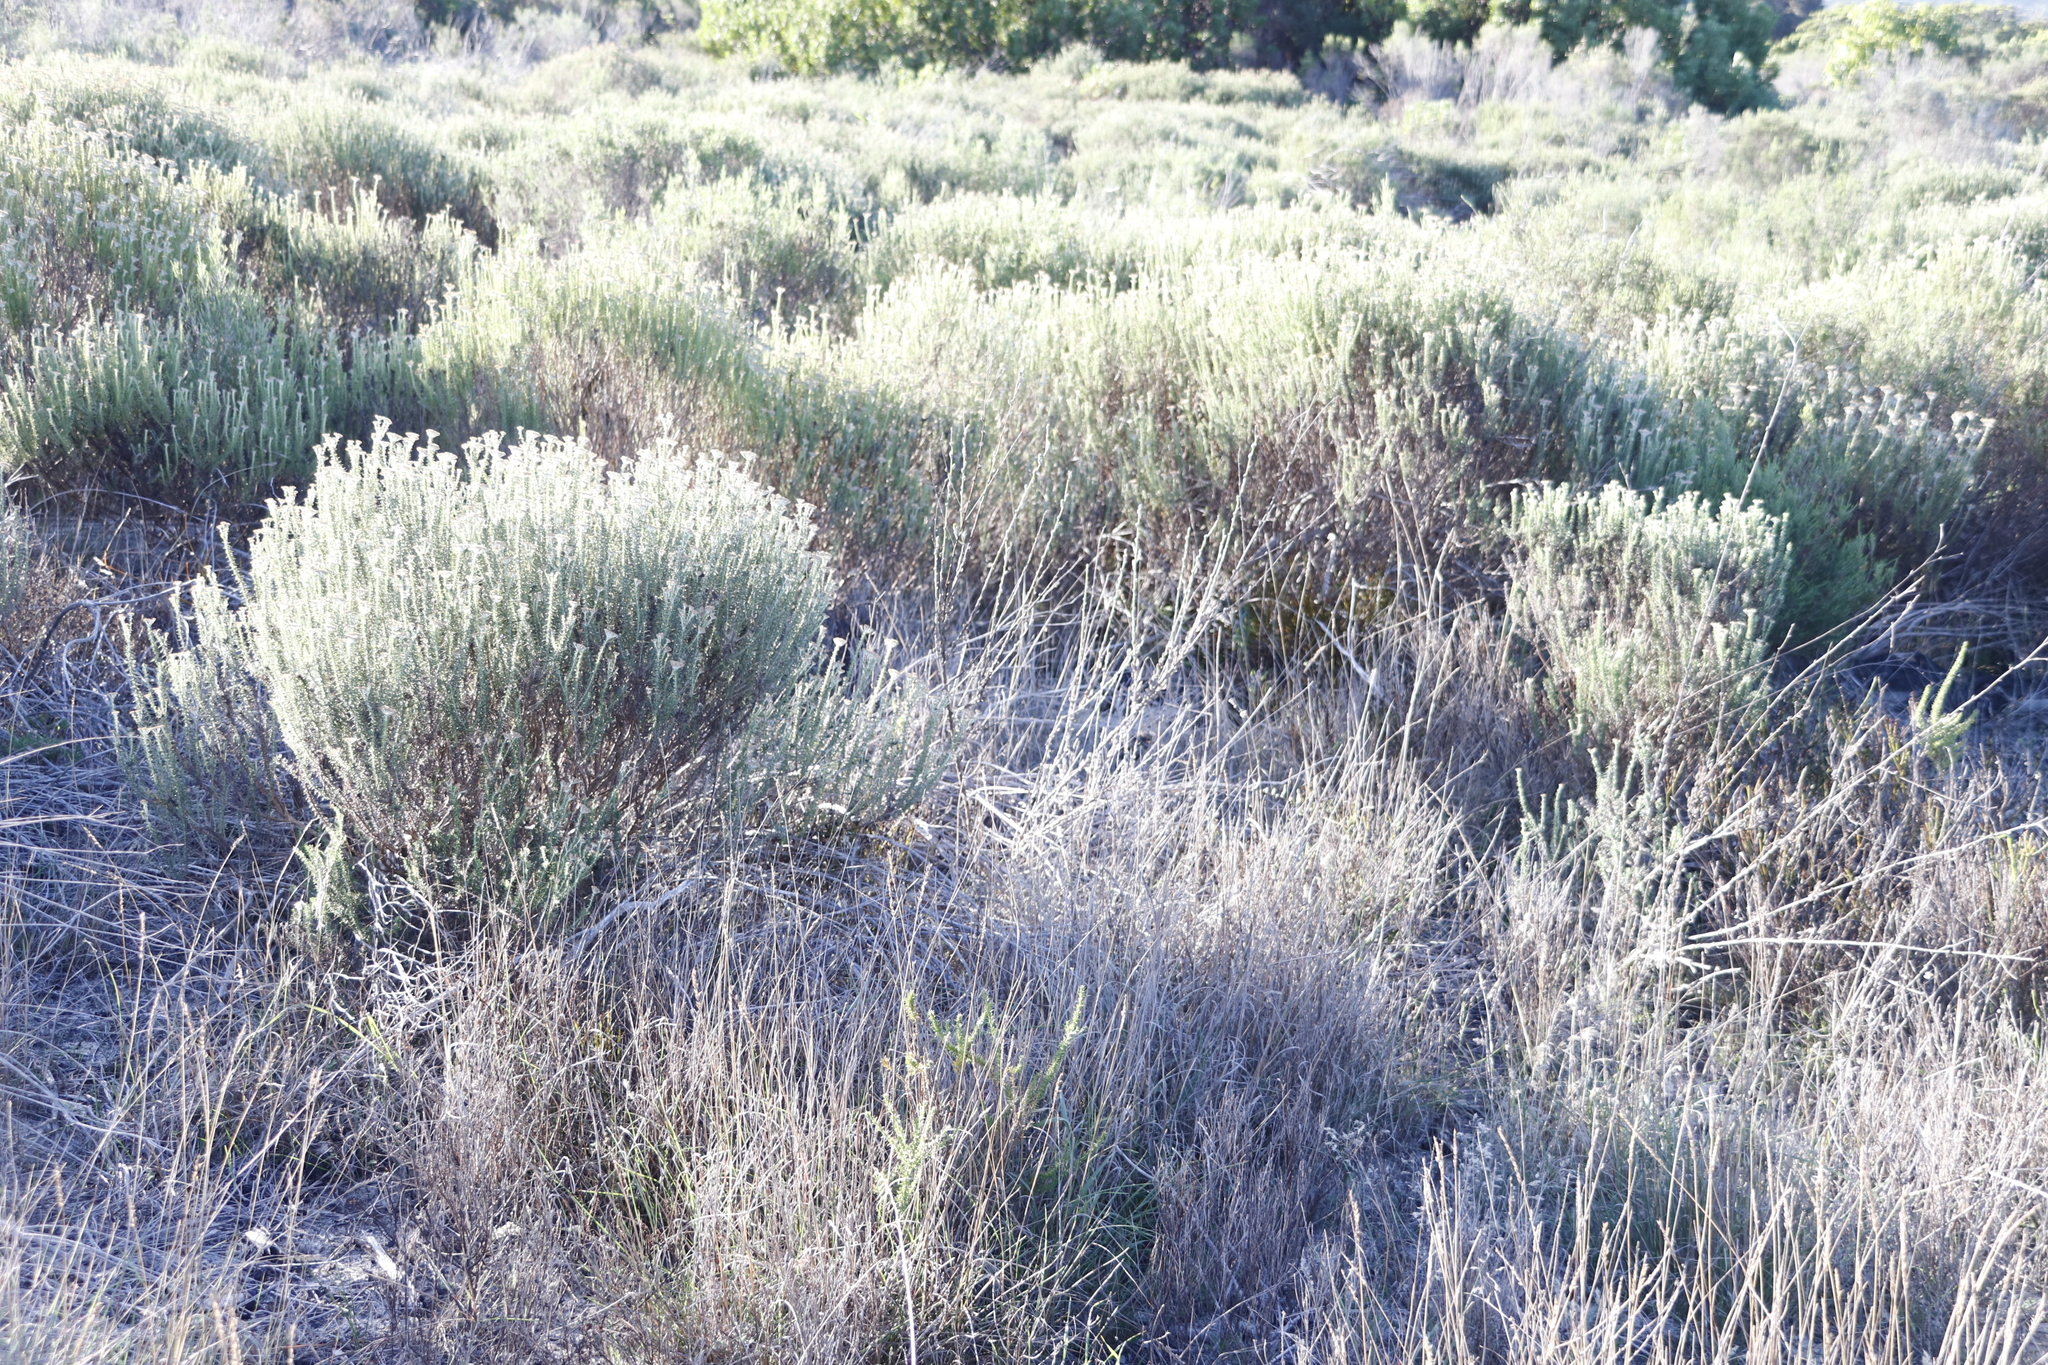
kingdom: Plantae
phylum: Tracheophyta
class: Magnoliopsida
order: Asterales
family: Asteraceae
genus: Metalasia
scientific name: Metalasia densa
